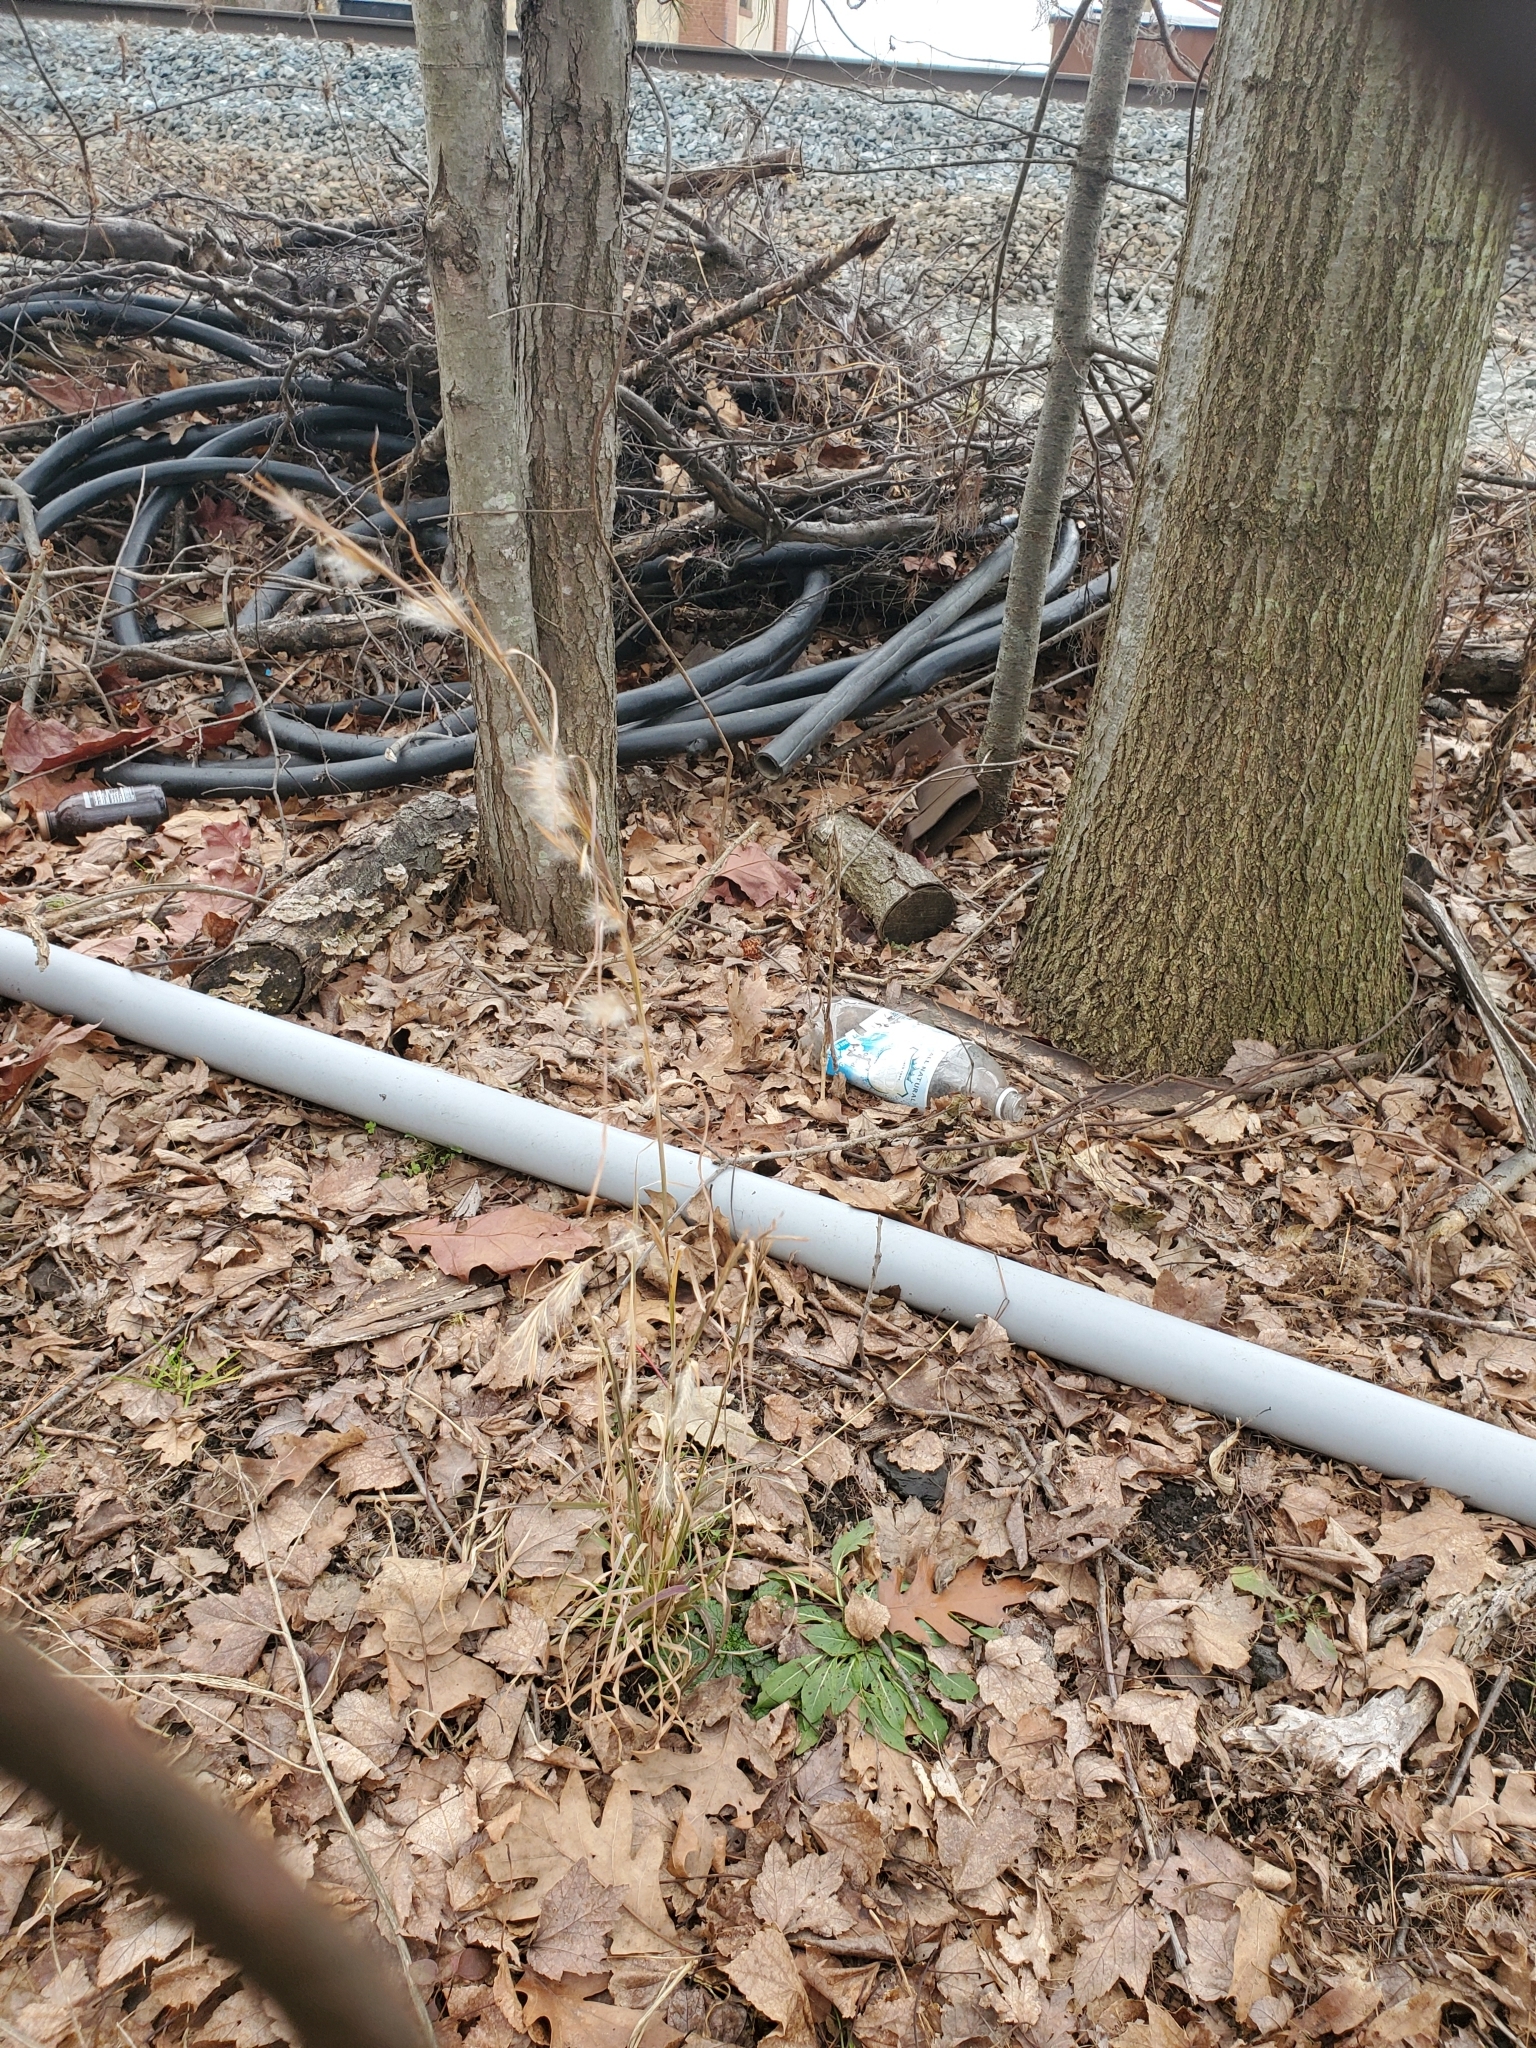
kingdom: Plantae
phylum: Tracheophyta
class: Liliopsida
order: Poales
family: Poaceae
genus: Andropogon
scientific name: Andropogon virginicus
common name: Broomsedge bluestem
